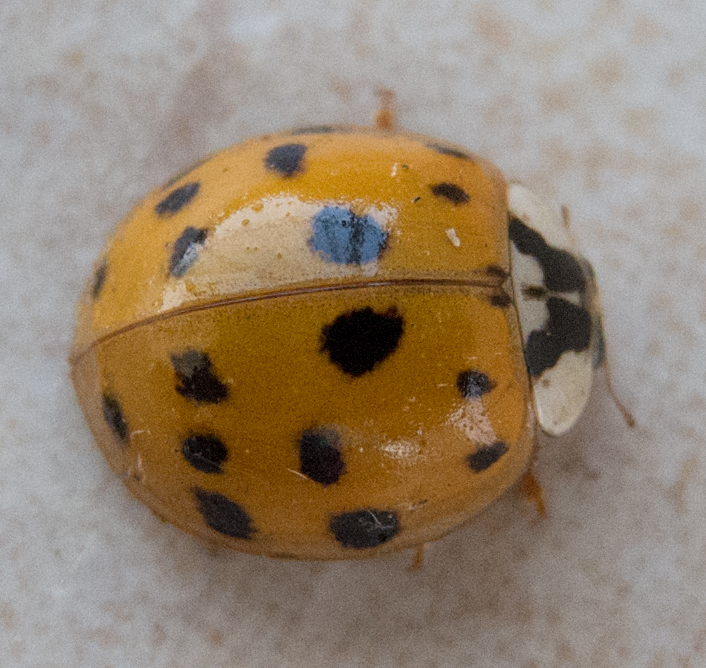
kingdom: Animalia
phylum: Arthropoda
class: Insecta
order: Coleoptera
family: Coccinellidae
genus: Harmonia
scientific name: Harmonia axyridis
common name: Harlequin ladybird
